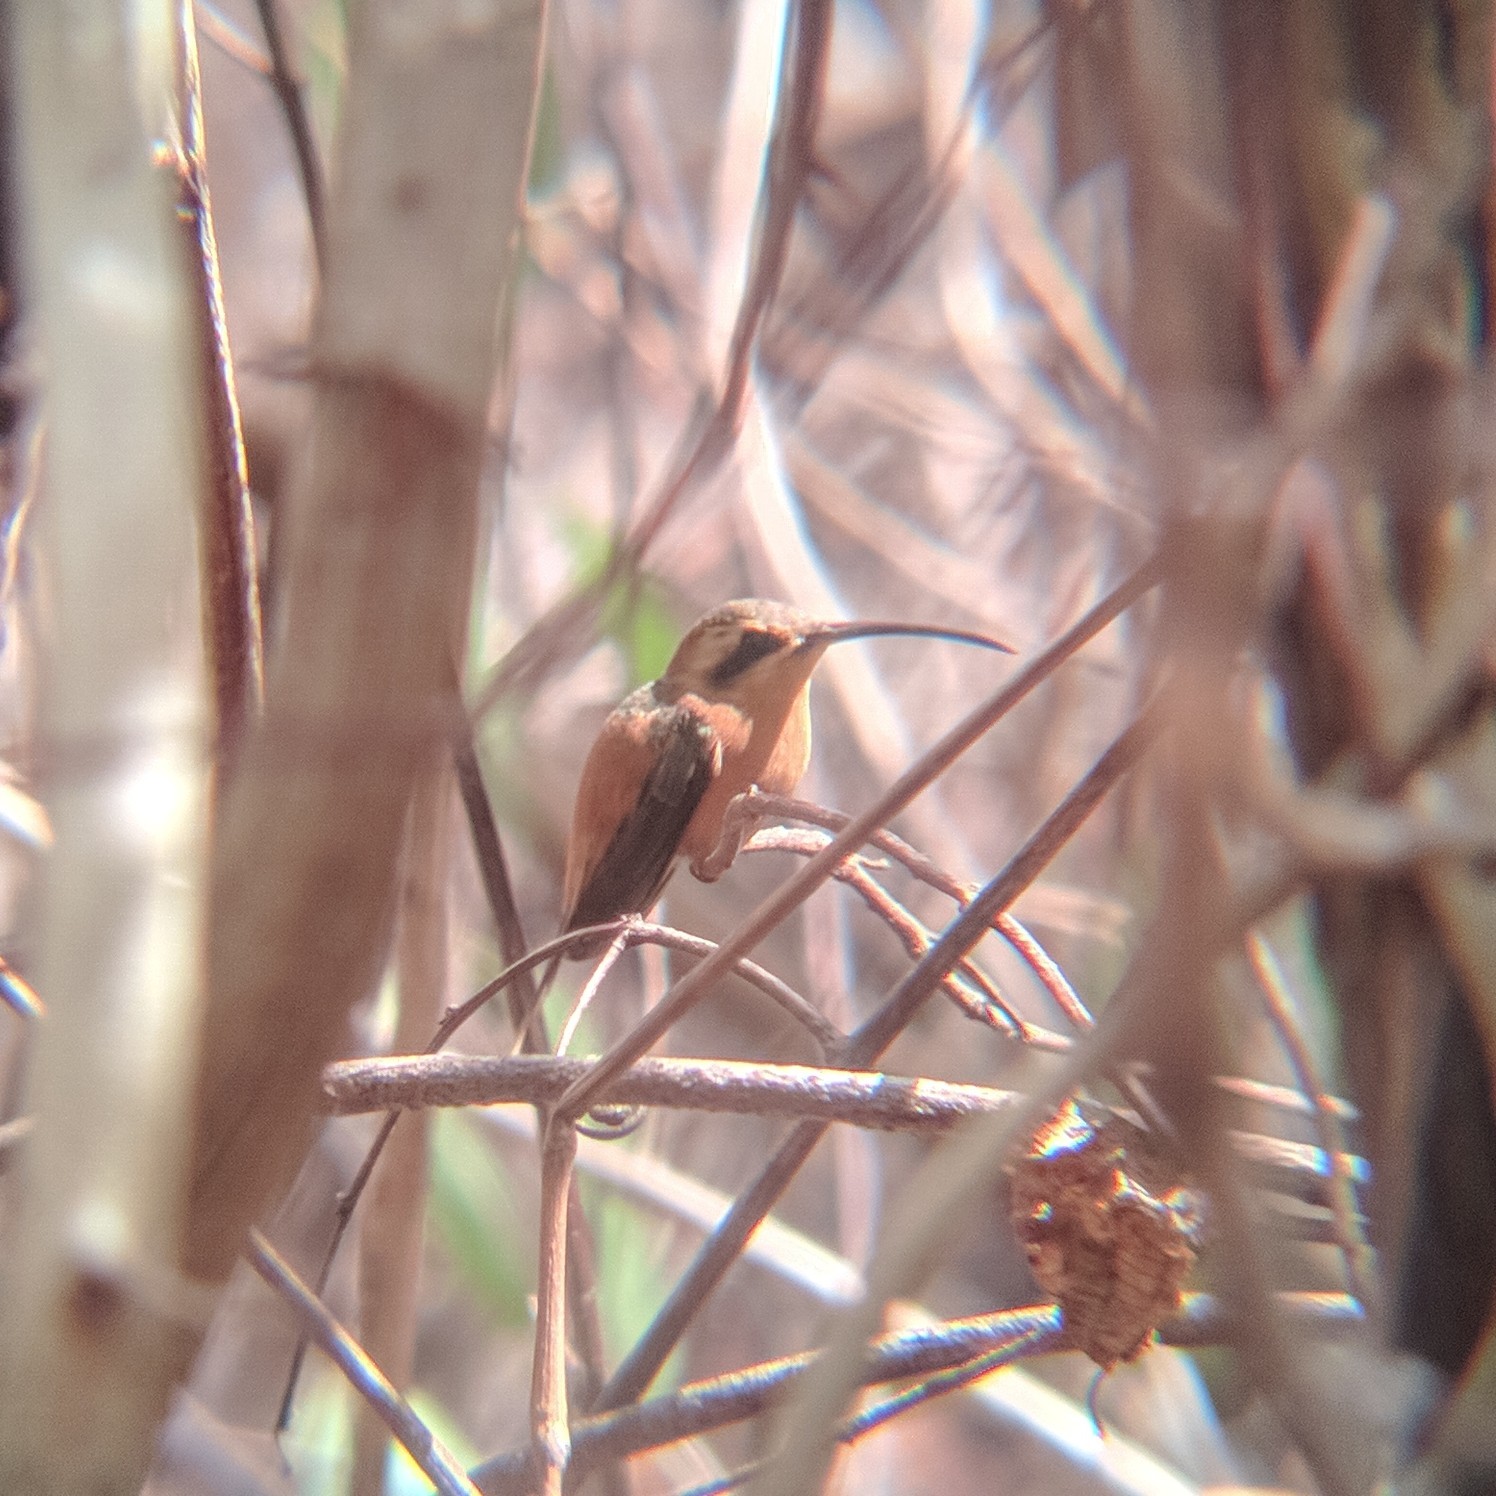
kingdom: Animalia
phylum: Chordata
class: Aves
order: Apodiformes
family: Trochilidae
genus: Phaethornis
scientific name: Phaethornis ruber
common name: Reddish hermit
